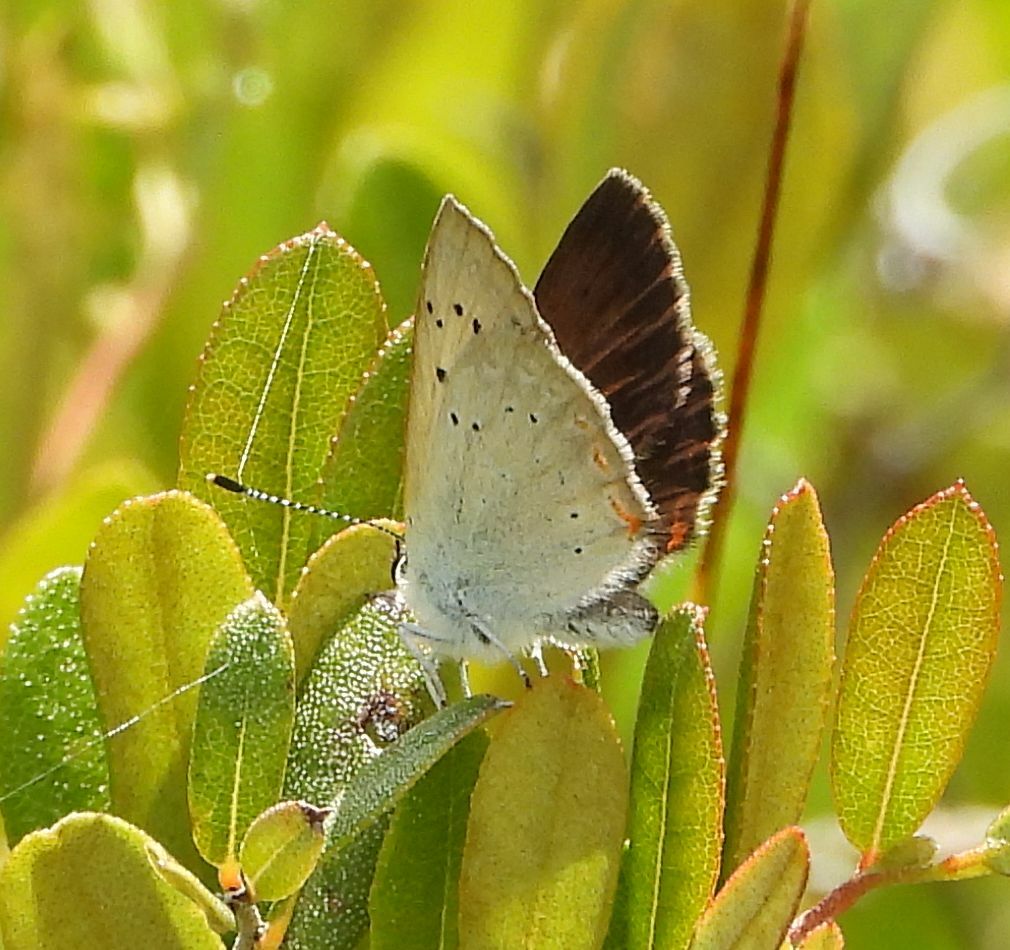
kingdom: Animalia
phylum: Arthropoda
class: Insecta
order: Lepidoptera
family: Lycaenidae
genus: Tharsalea
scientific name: Tharsalea epixanthe
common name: Bog copper
